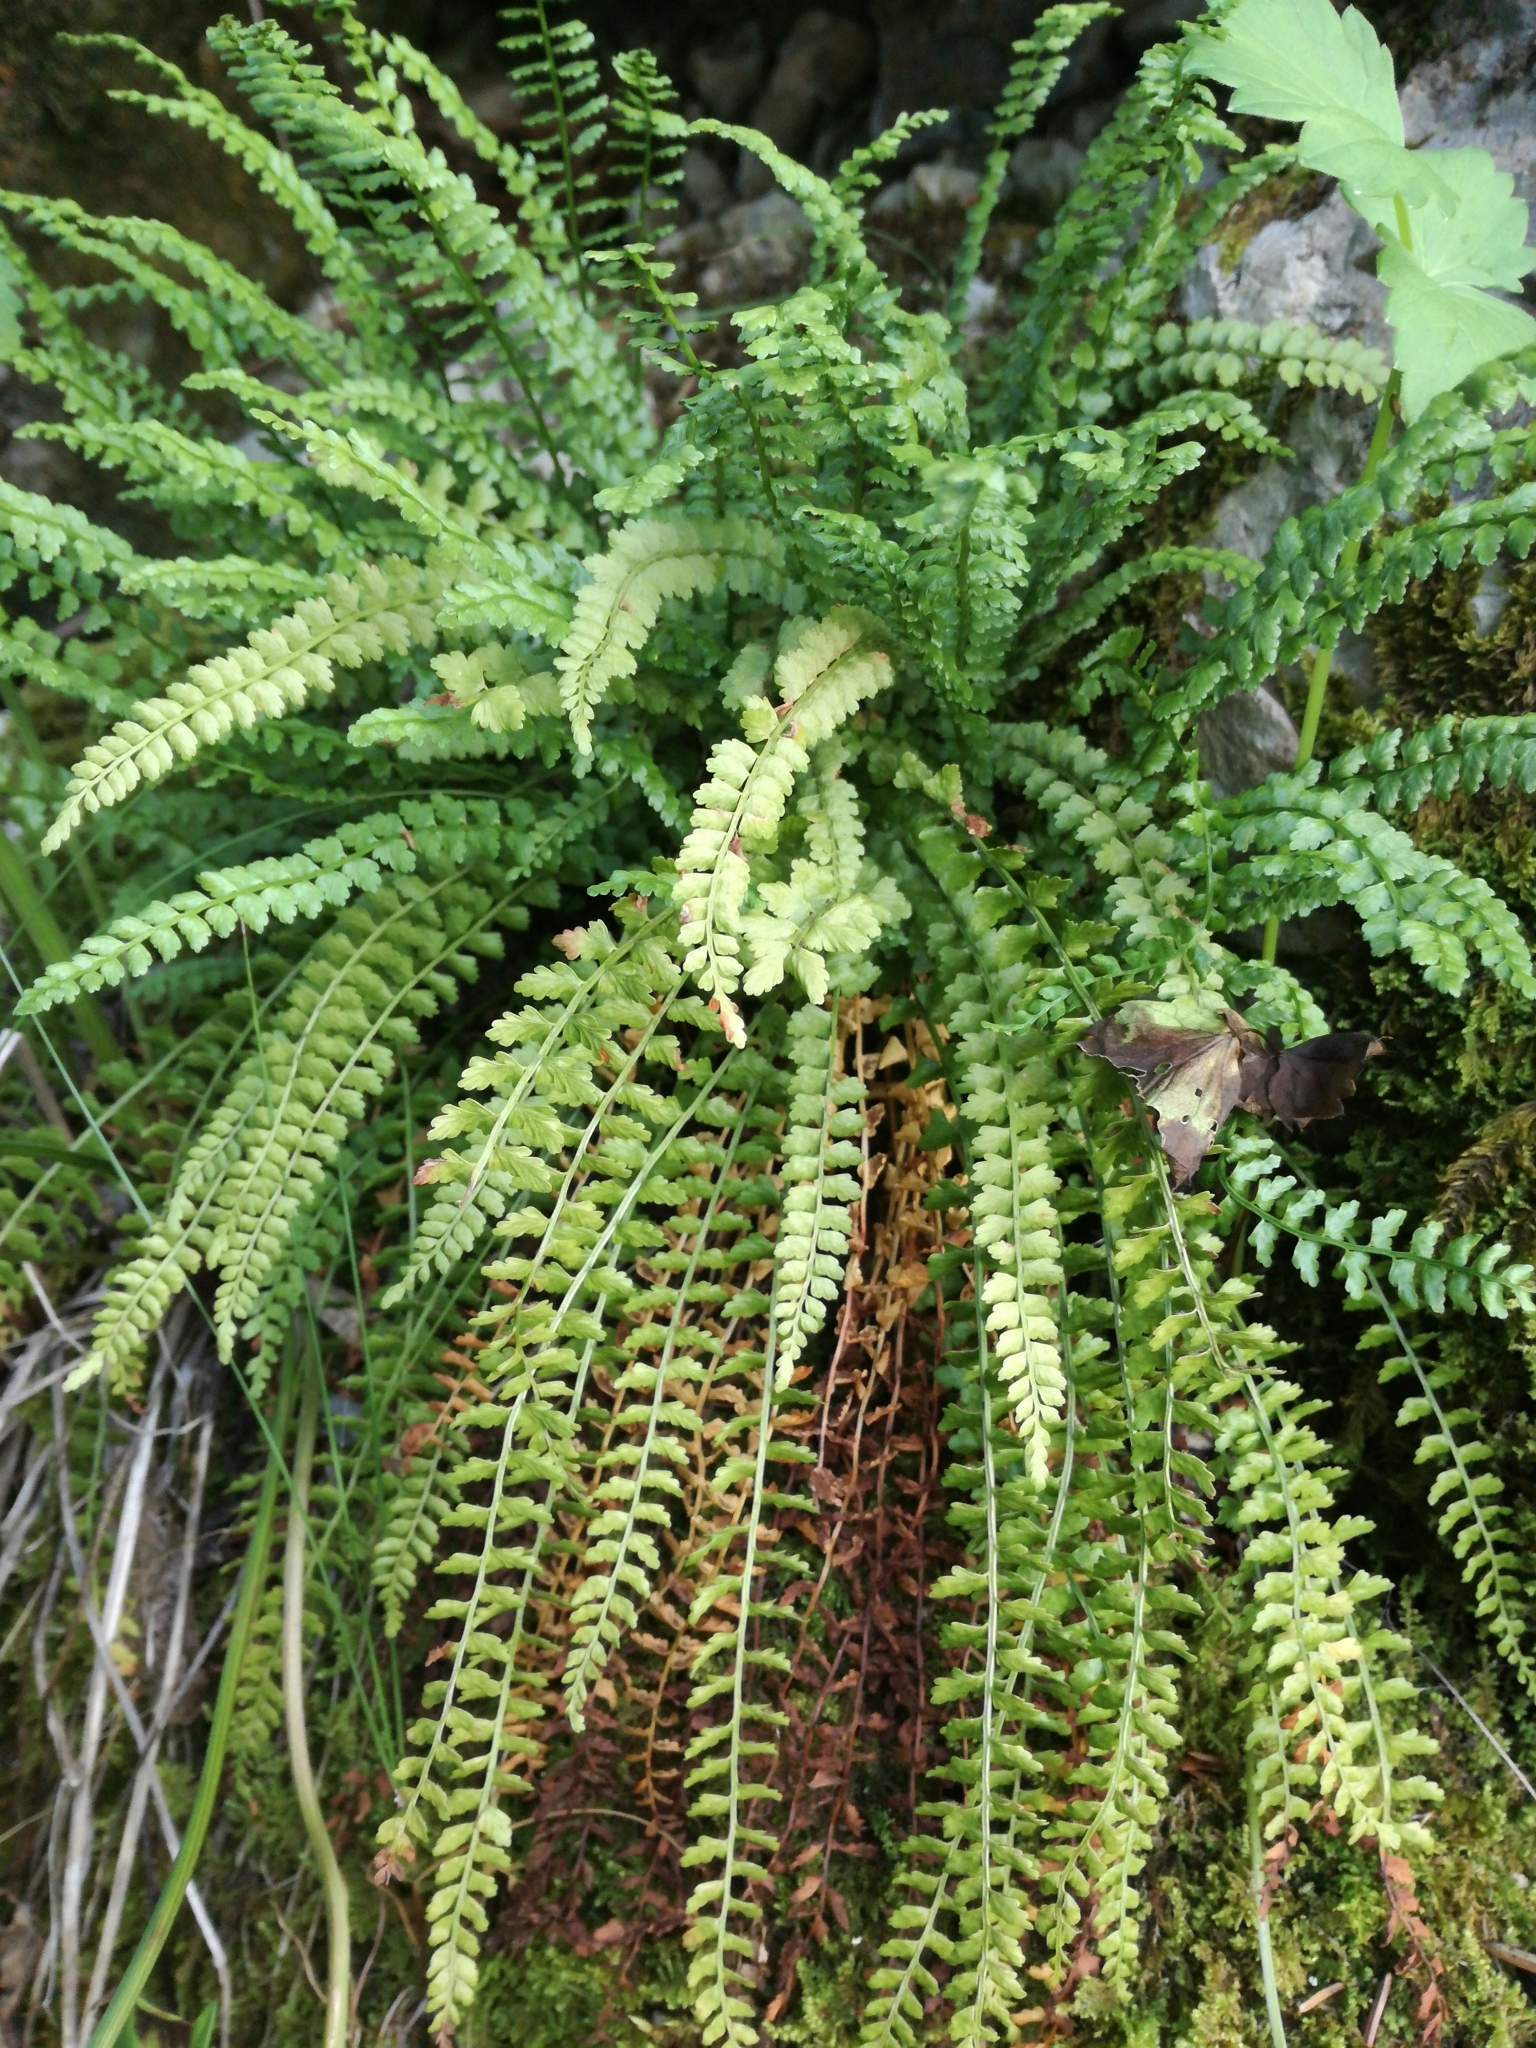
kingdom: Plantae
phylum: Tracheophyta
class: Polypodiopsida
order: Polypodiales
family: Aspleniaceae
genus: Asplenium
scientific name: Asplenium viride
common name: Green spleenwort
